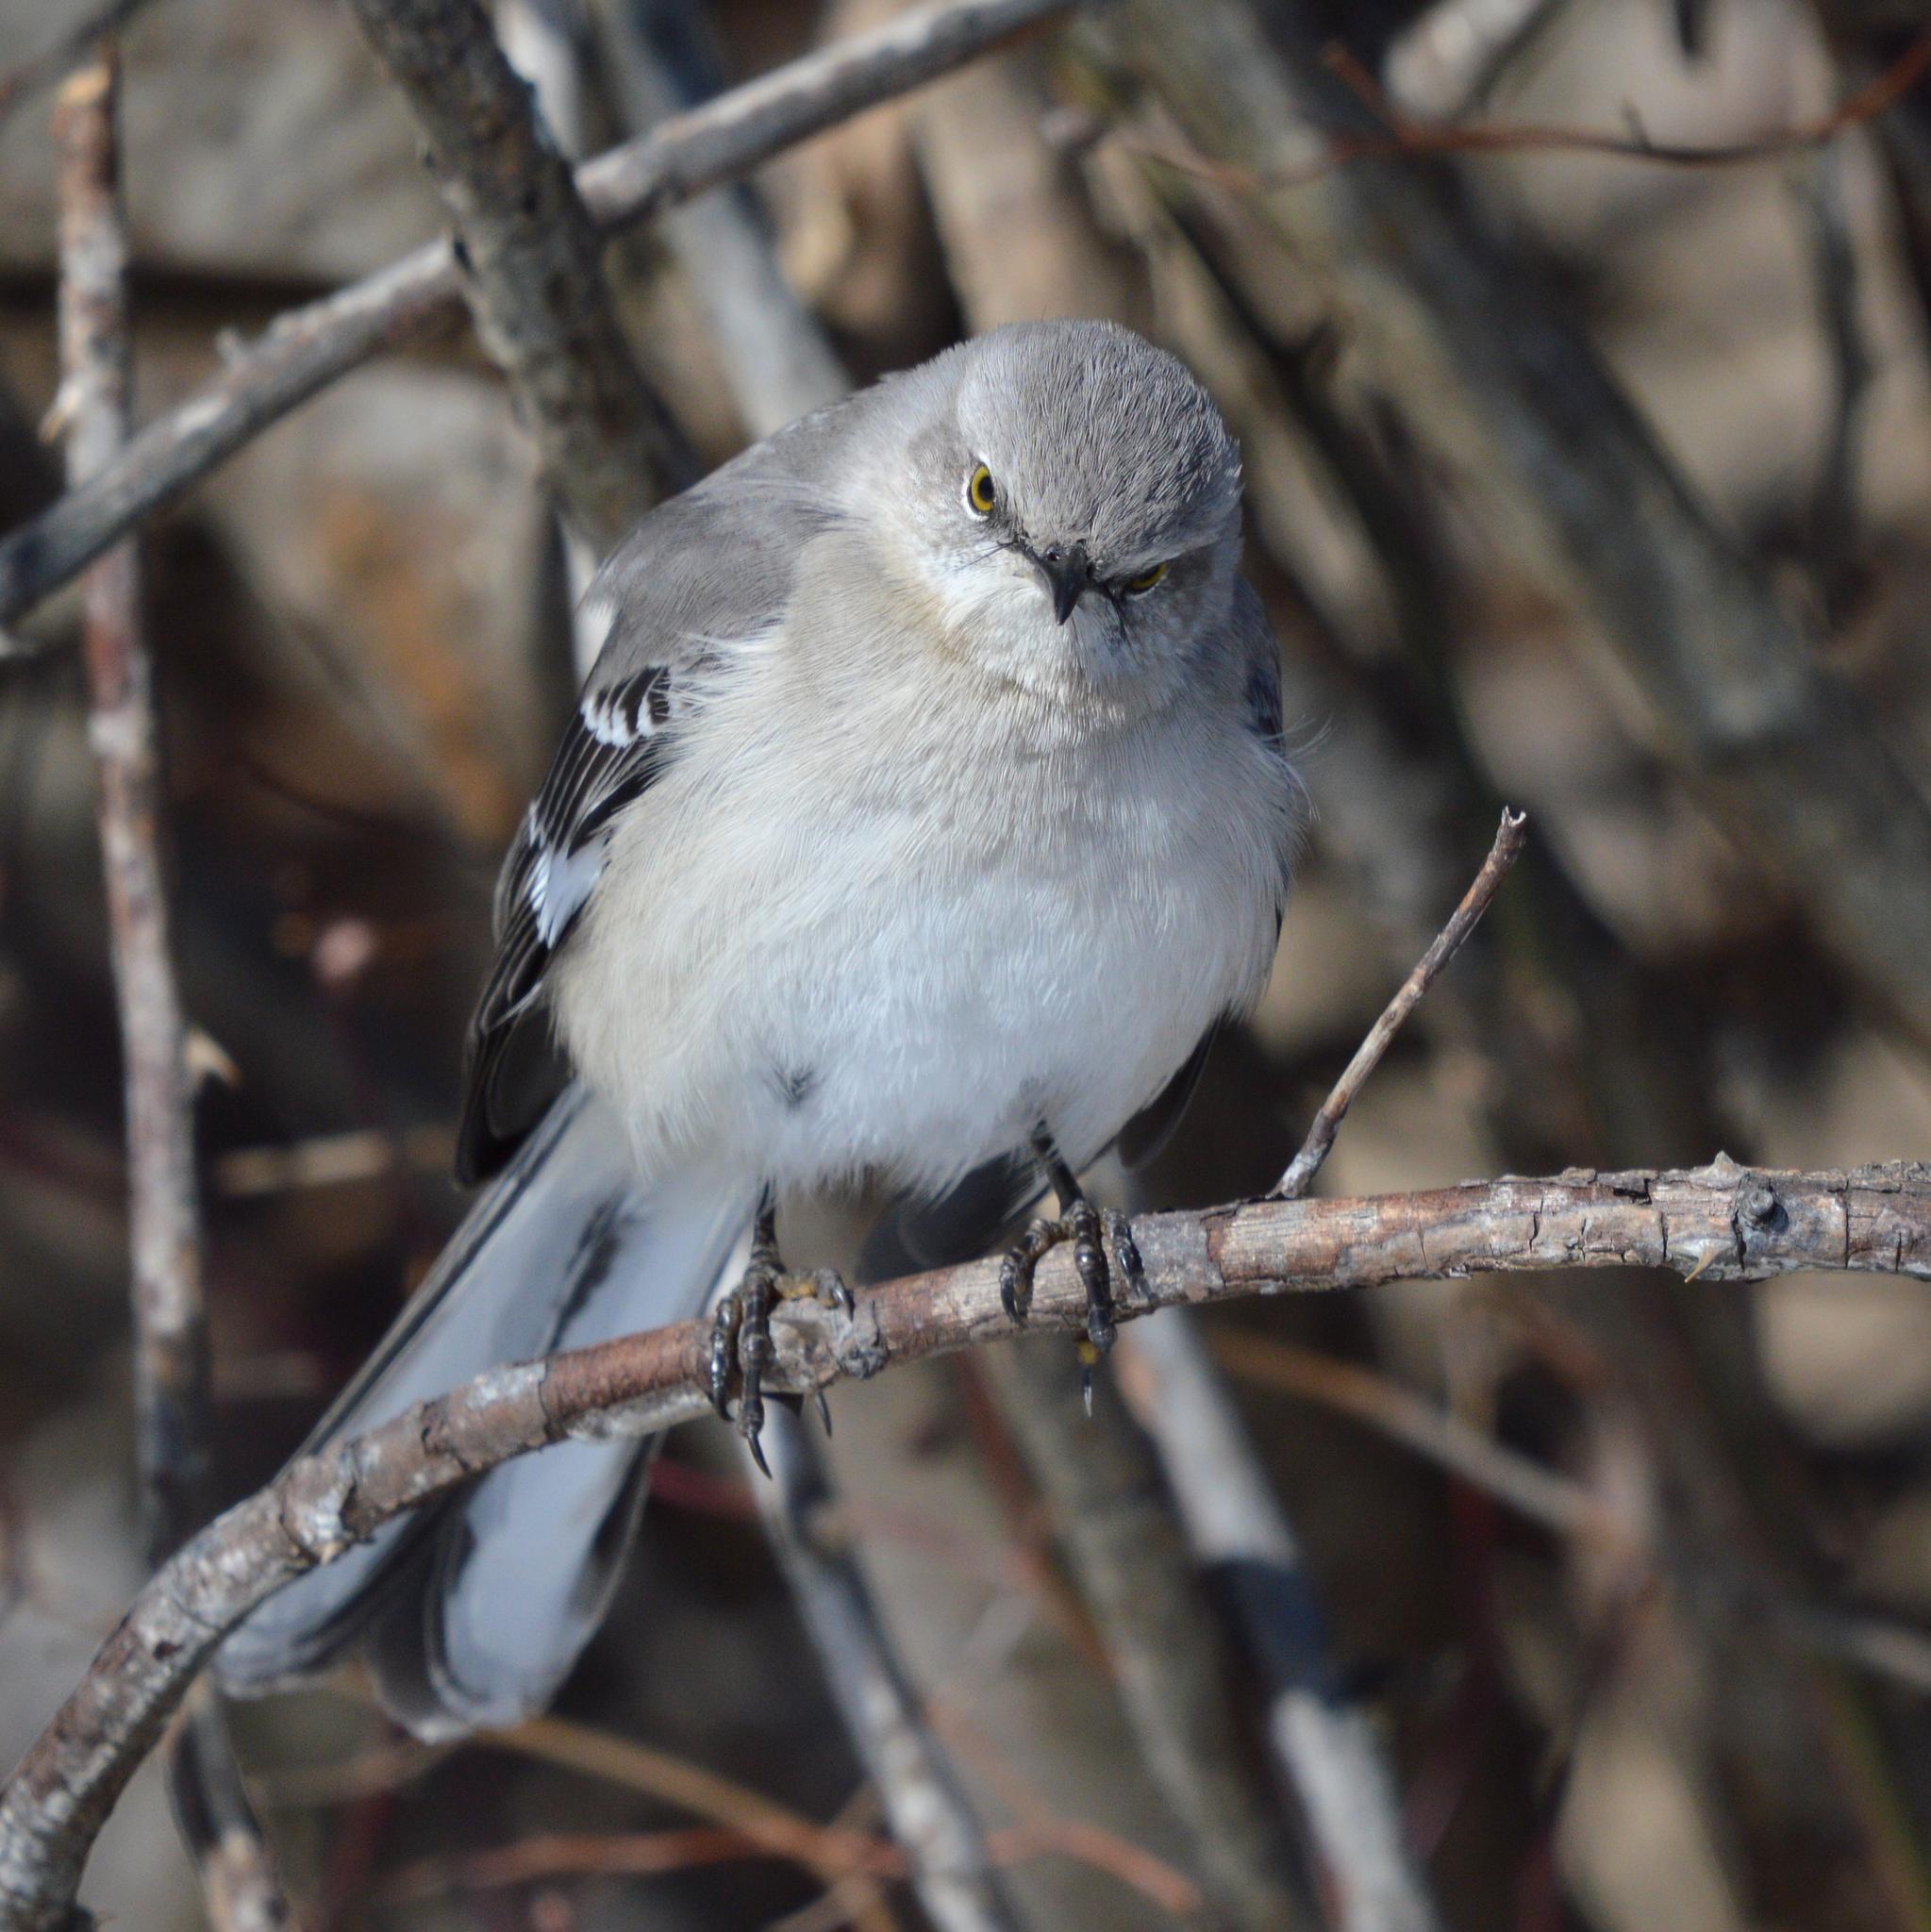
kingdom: Animalia
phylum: Chordata
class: Aves
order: Passeriformes
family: Mimidae
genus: Mimus
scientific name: Mimus polyglottos
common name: Northern mockingbird
